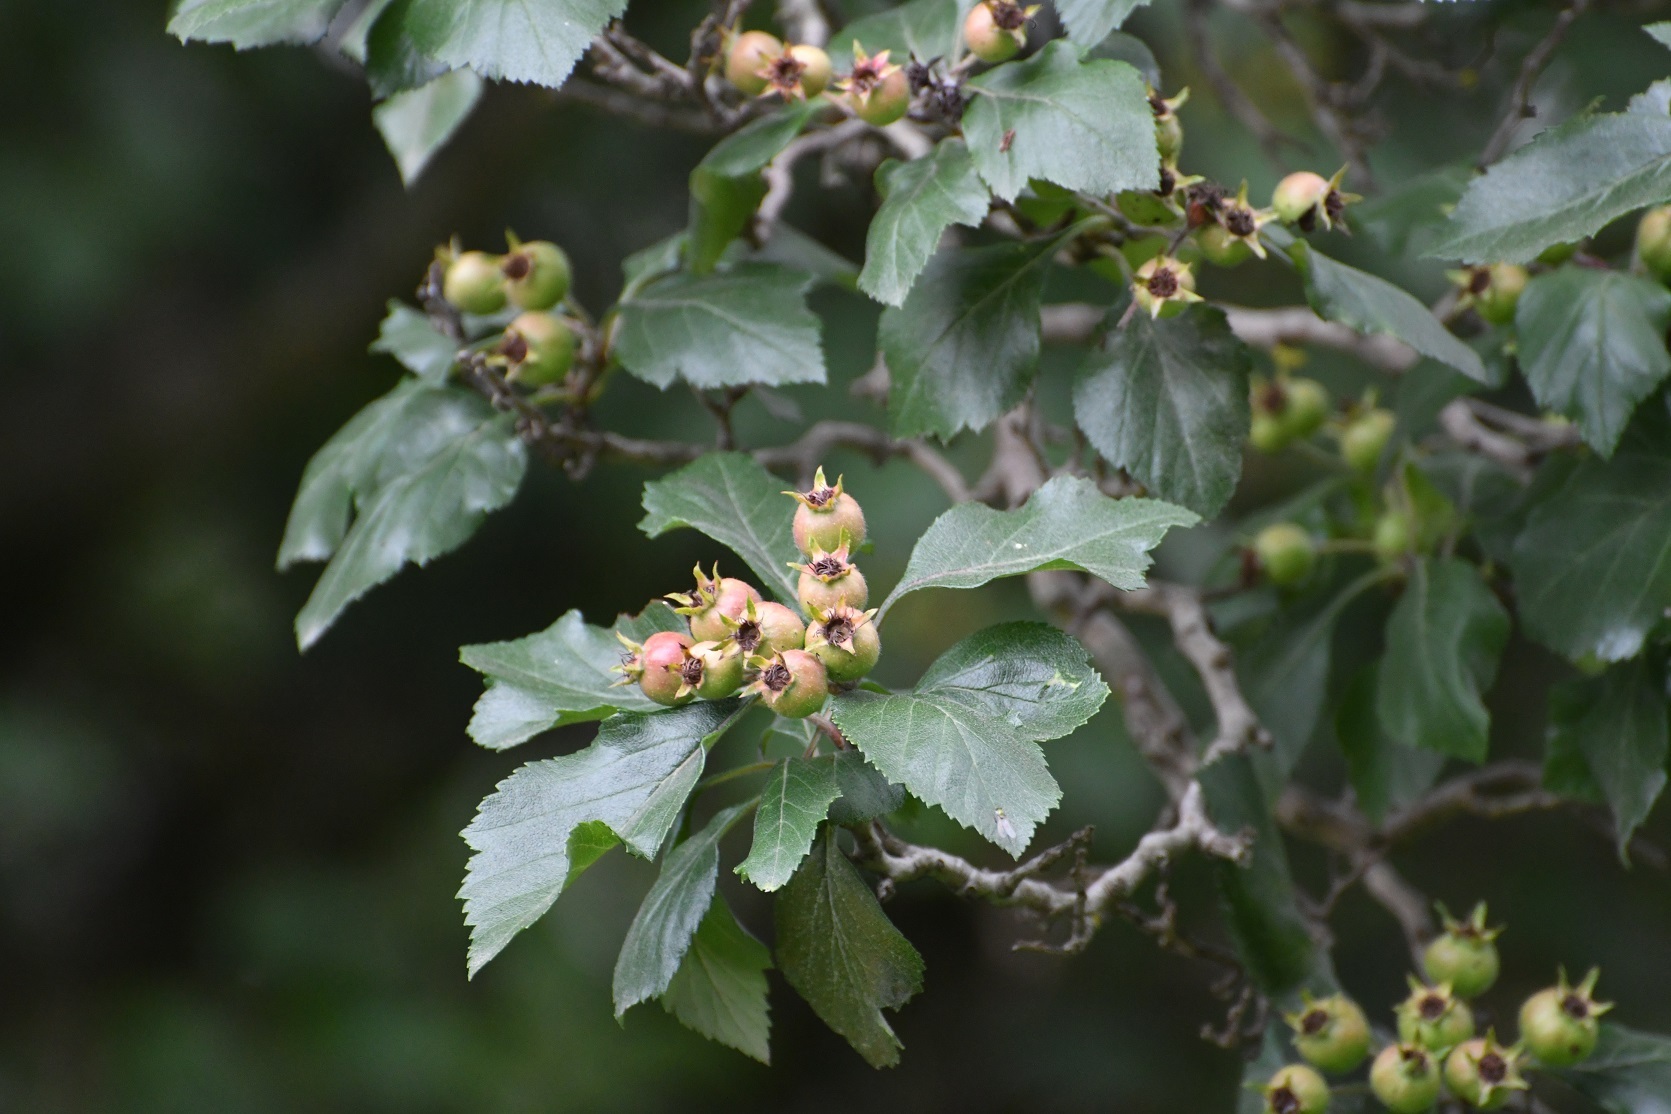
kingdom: Plantae
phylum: Tracheophyta
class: Magnoliopsida
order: Rosales
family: Rosaceae
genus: Crataegus
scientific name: Crataegus mexicana
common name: Mexican hawthorn
